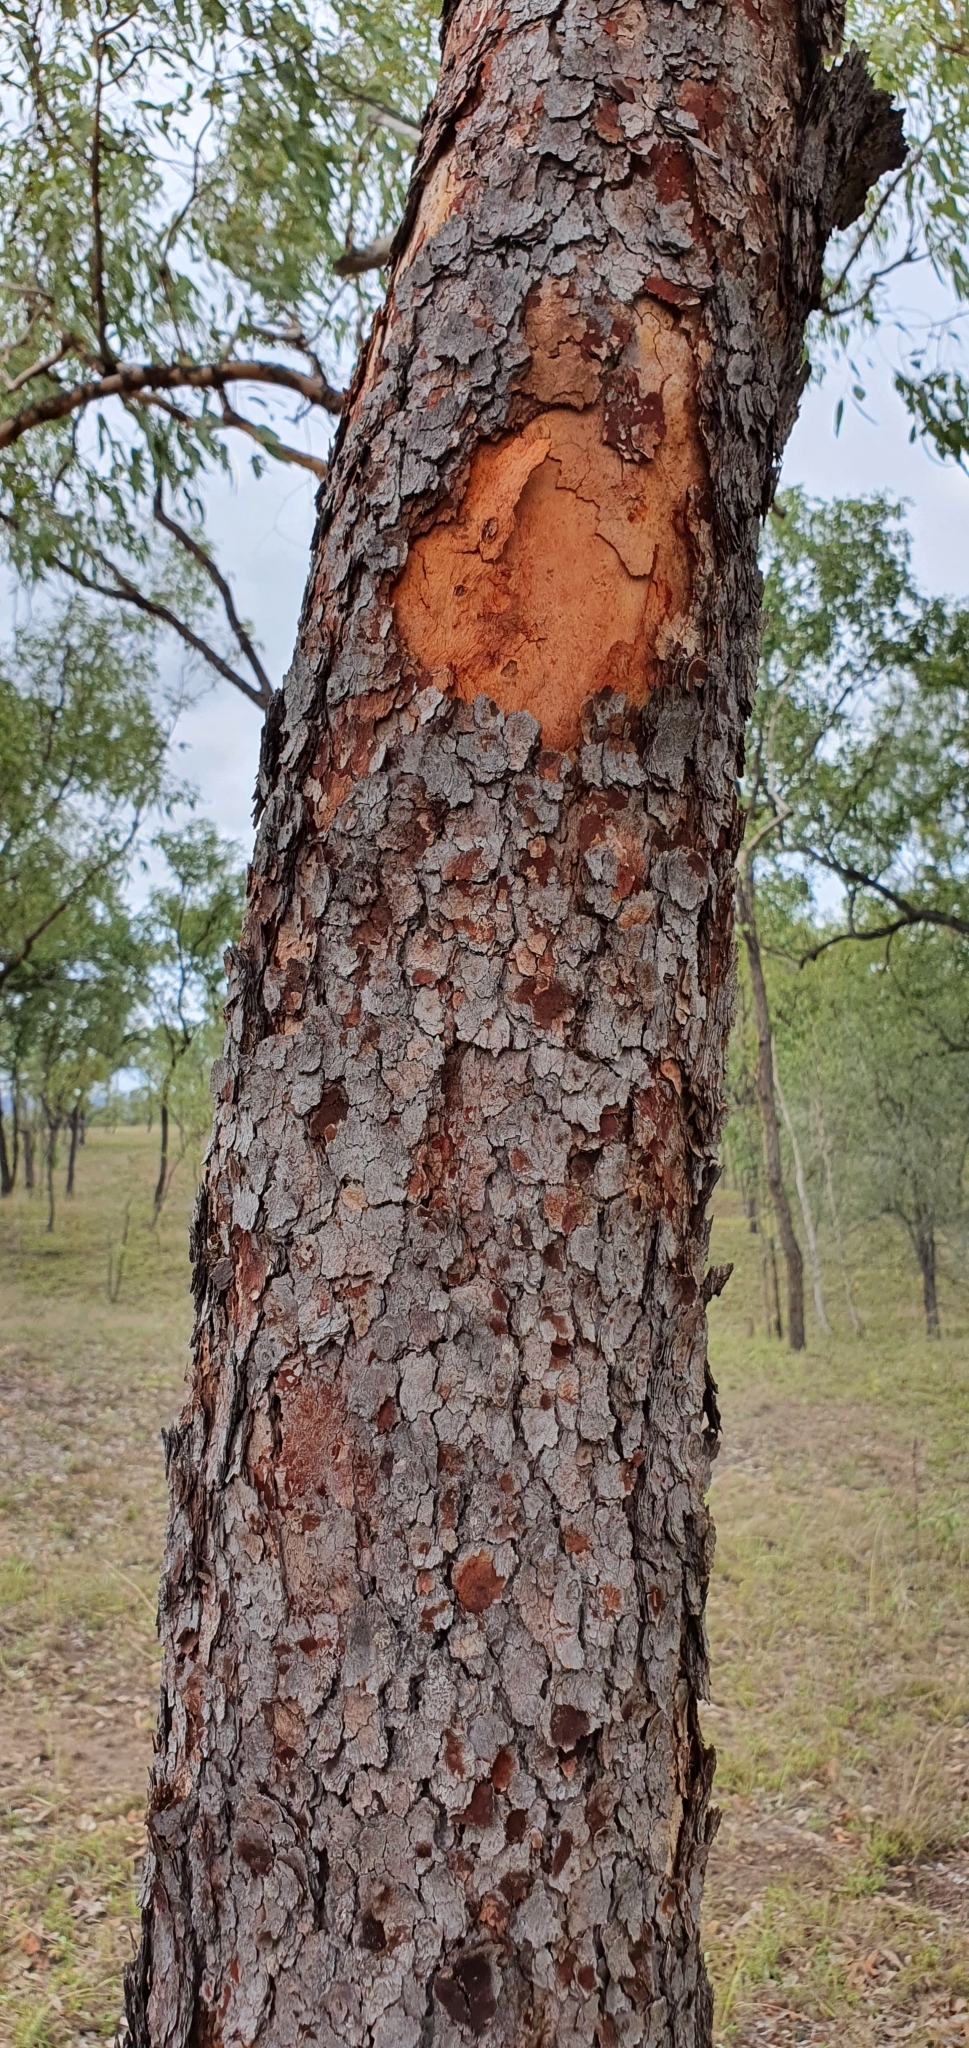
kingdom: Plantae
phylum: Tracheophyta
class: Magnoliopsida
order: Myrtales
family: Myrtaceae
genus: Corymbia
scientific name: Corymbia erythrophloia
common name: Red bloodwood
